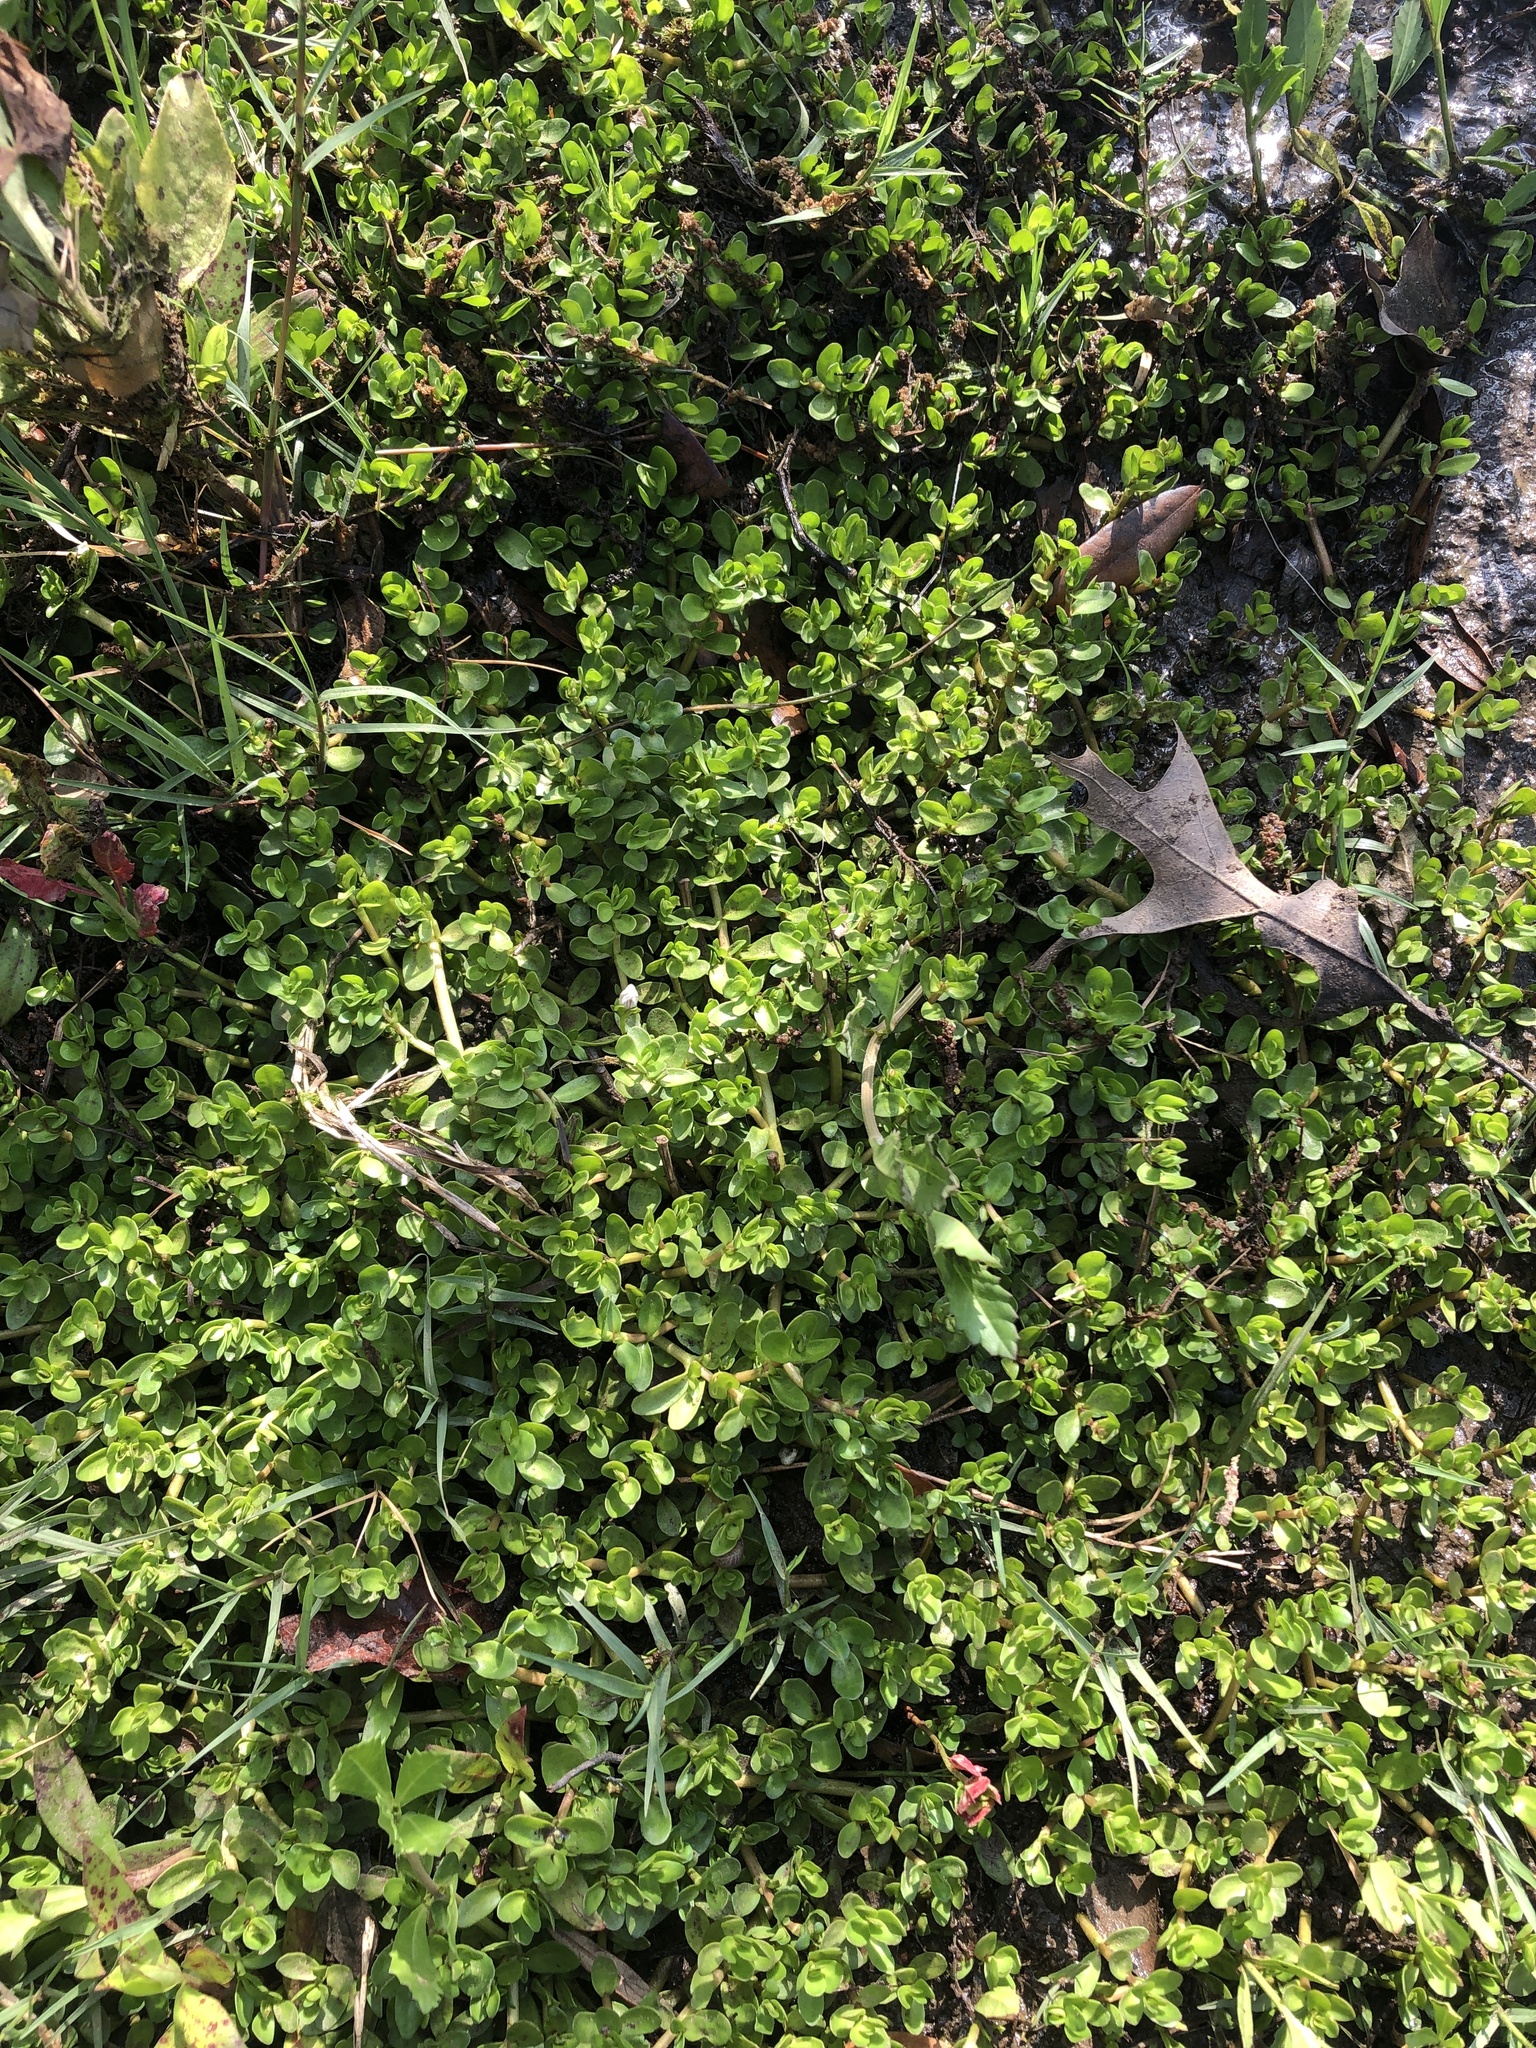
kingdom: Plantae
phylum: Tracheophyta
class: Magnoliopsida
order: Lamiales
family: Plantaginaceae
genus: Bacopa
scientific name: Bacopa monnieri
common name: Indian-pennywort
